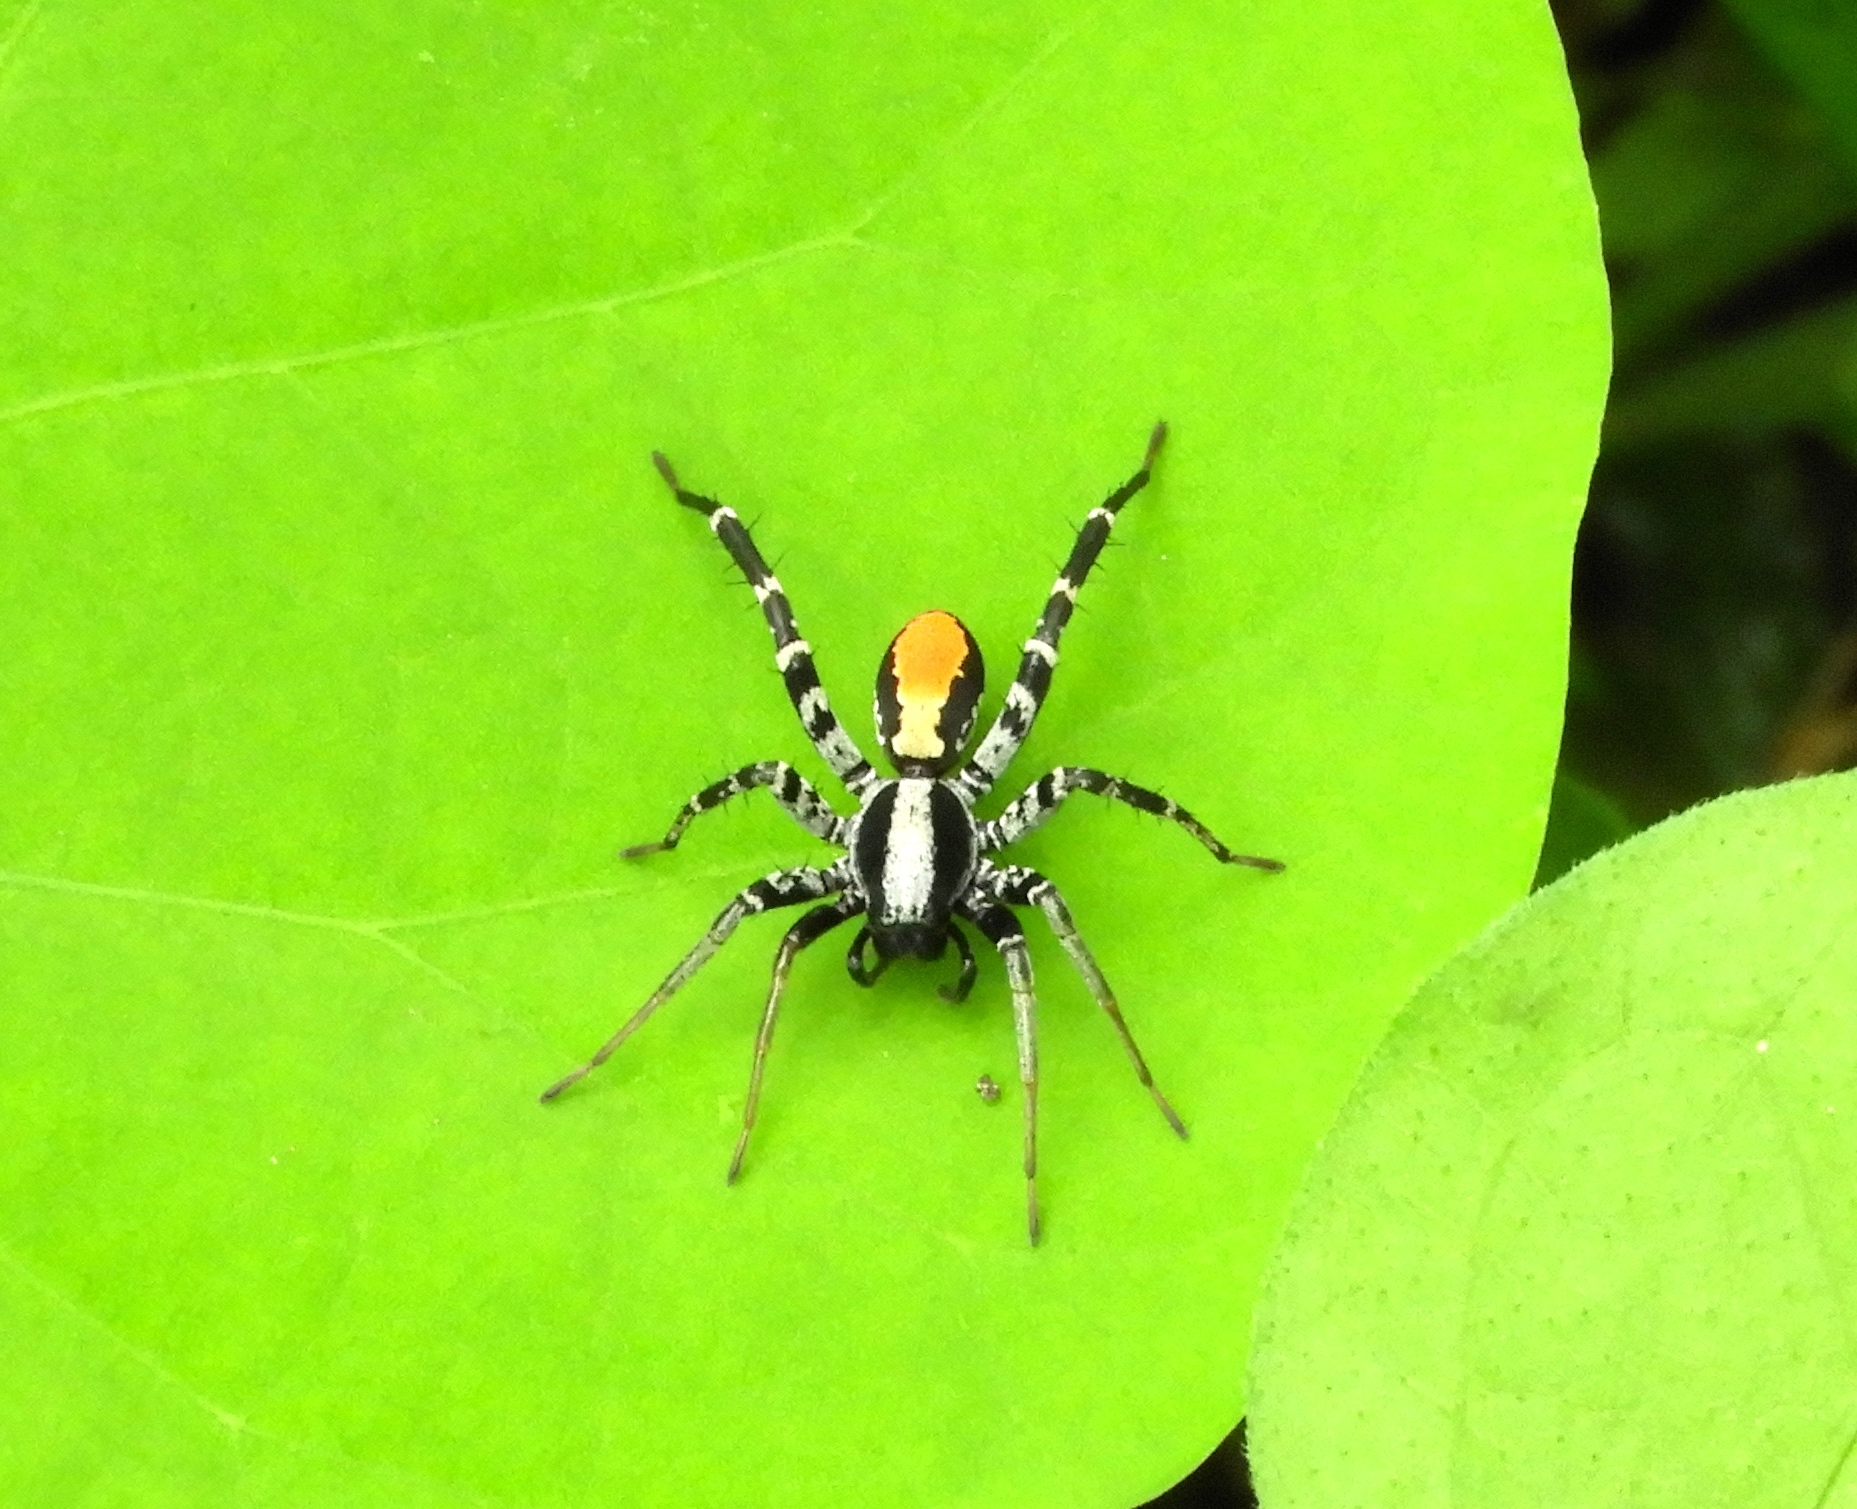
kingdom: Animalia
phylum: Arthropoda
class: Arachnida
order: Araneae
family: Corinnidae
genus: Castianeira
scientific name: Castianeira
